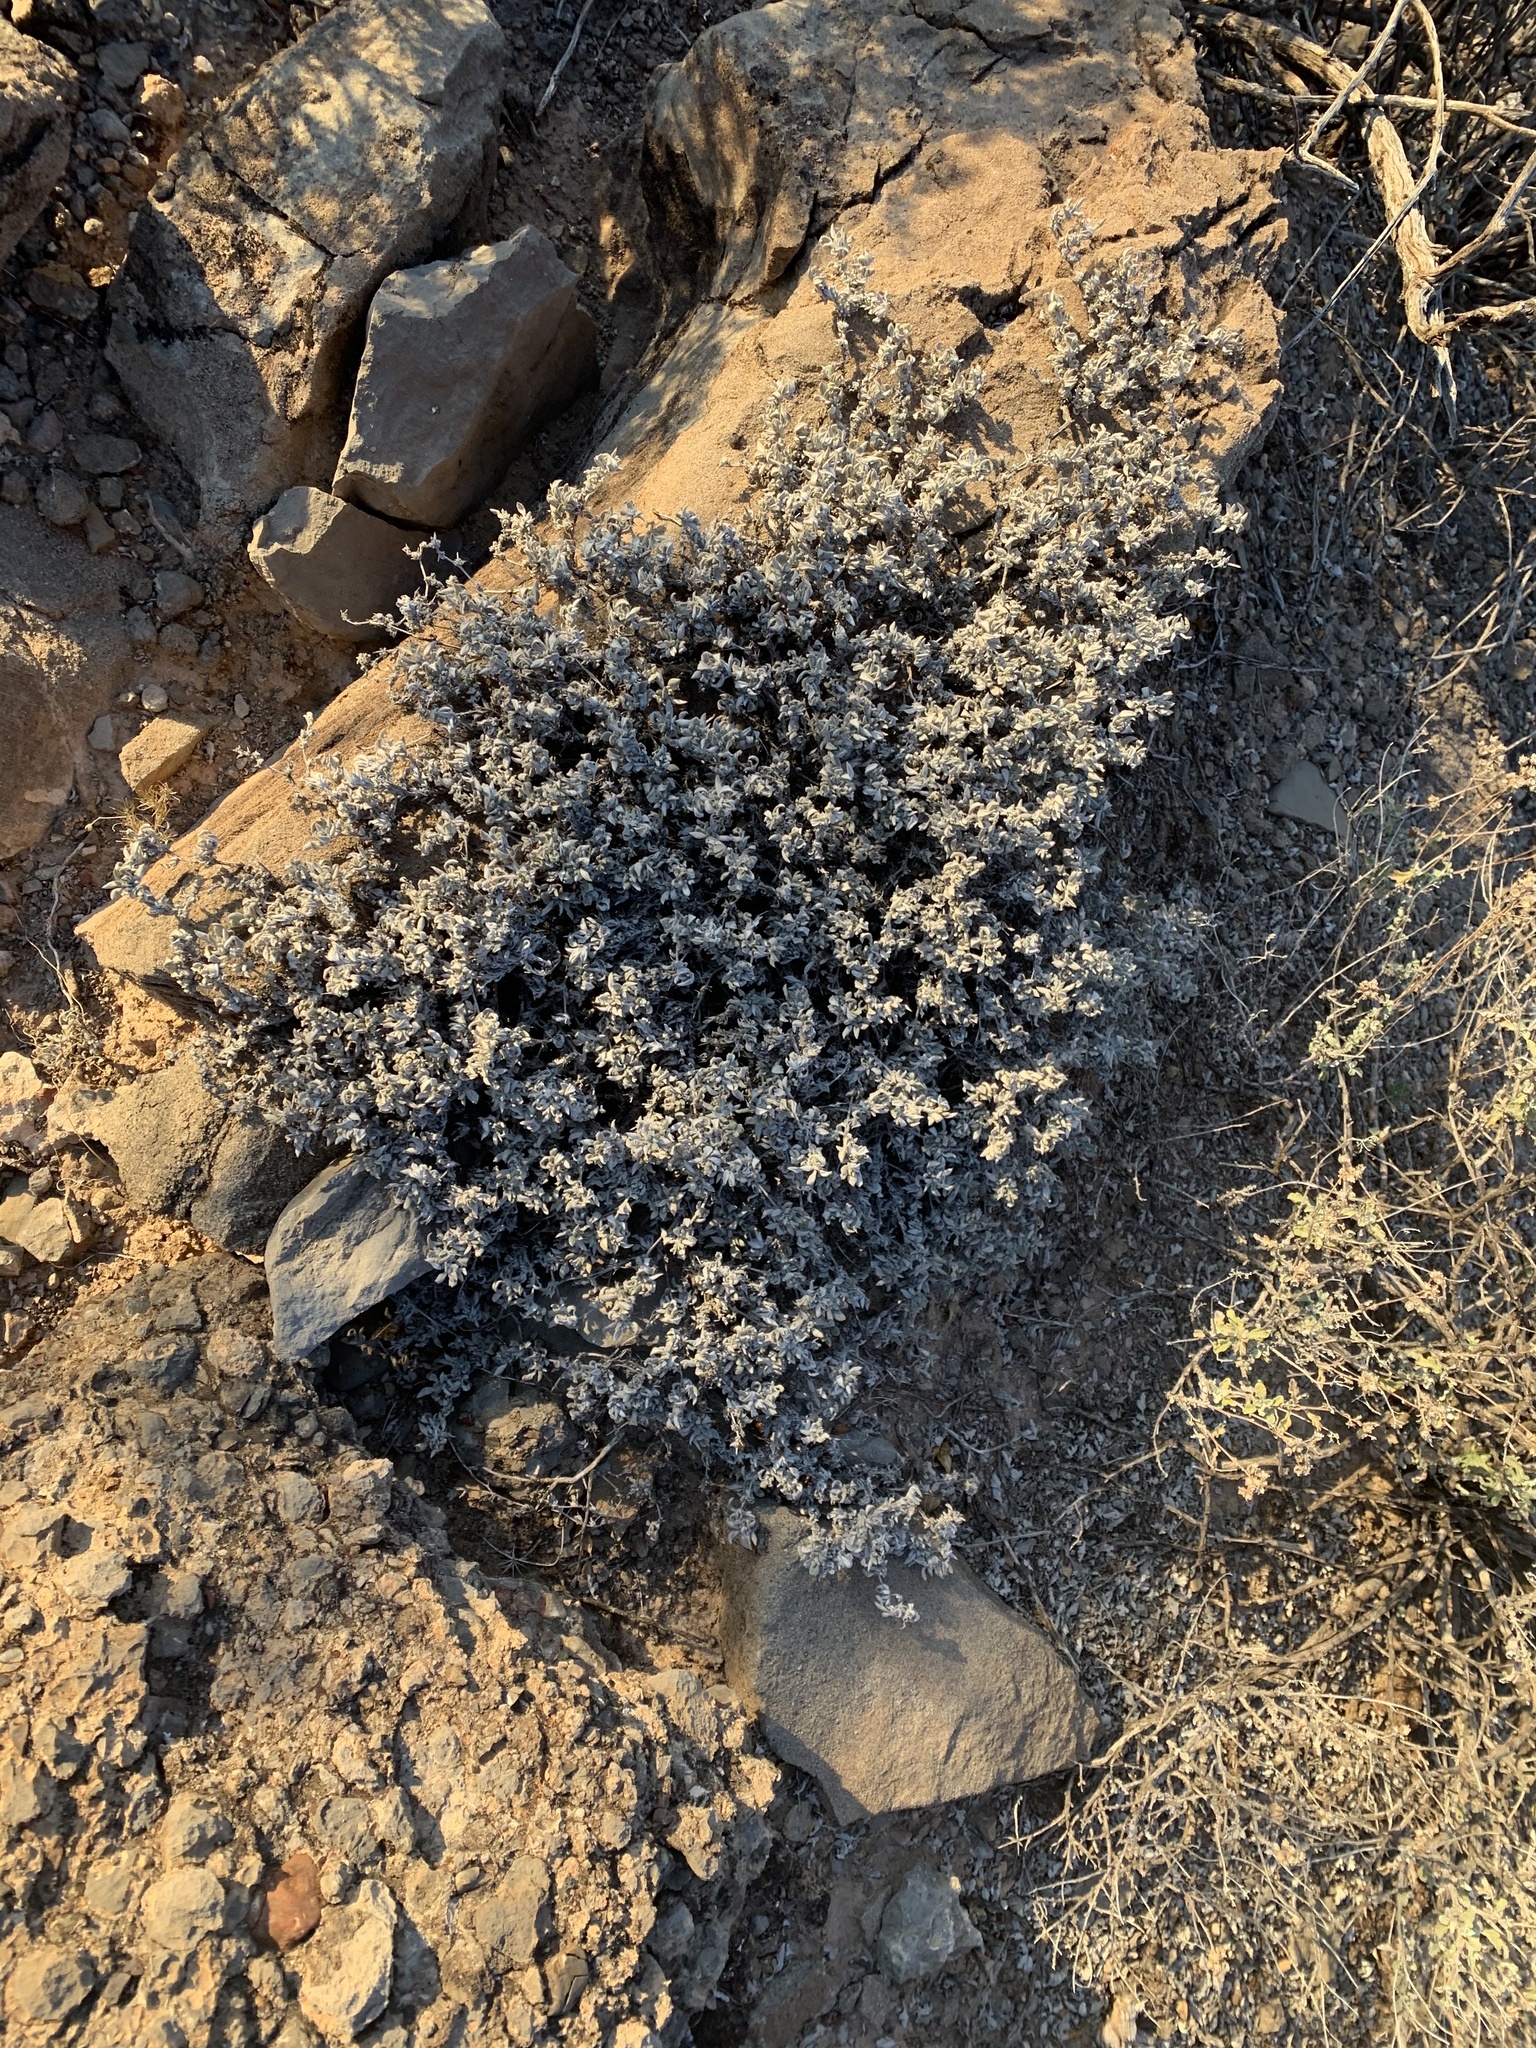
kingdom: Plantae
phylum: Tracheophyta
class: Magnoliopsida
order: Boraginales
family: Ehretiaceae
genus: Tiquilia
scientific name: Tiquilia canescens
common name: Hairy tiquilia
